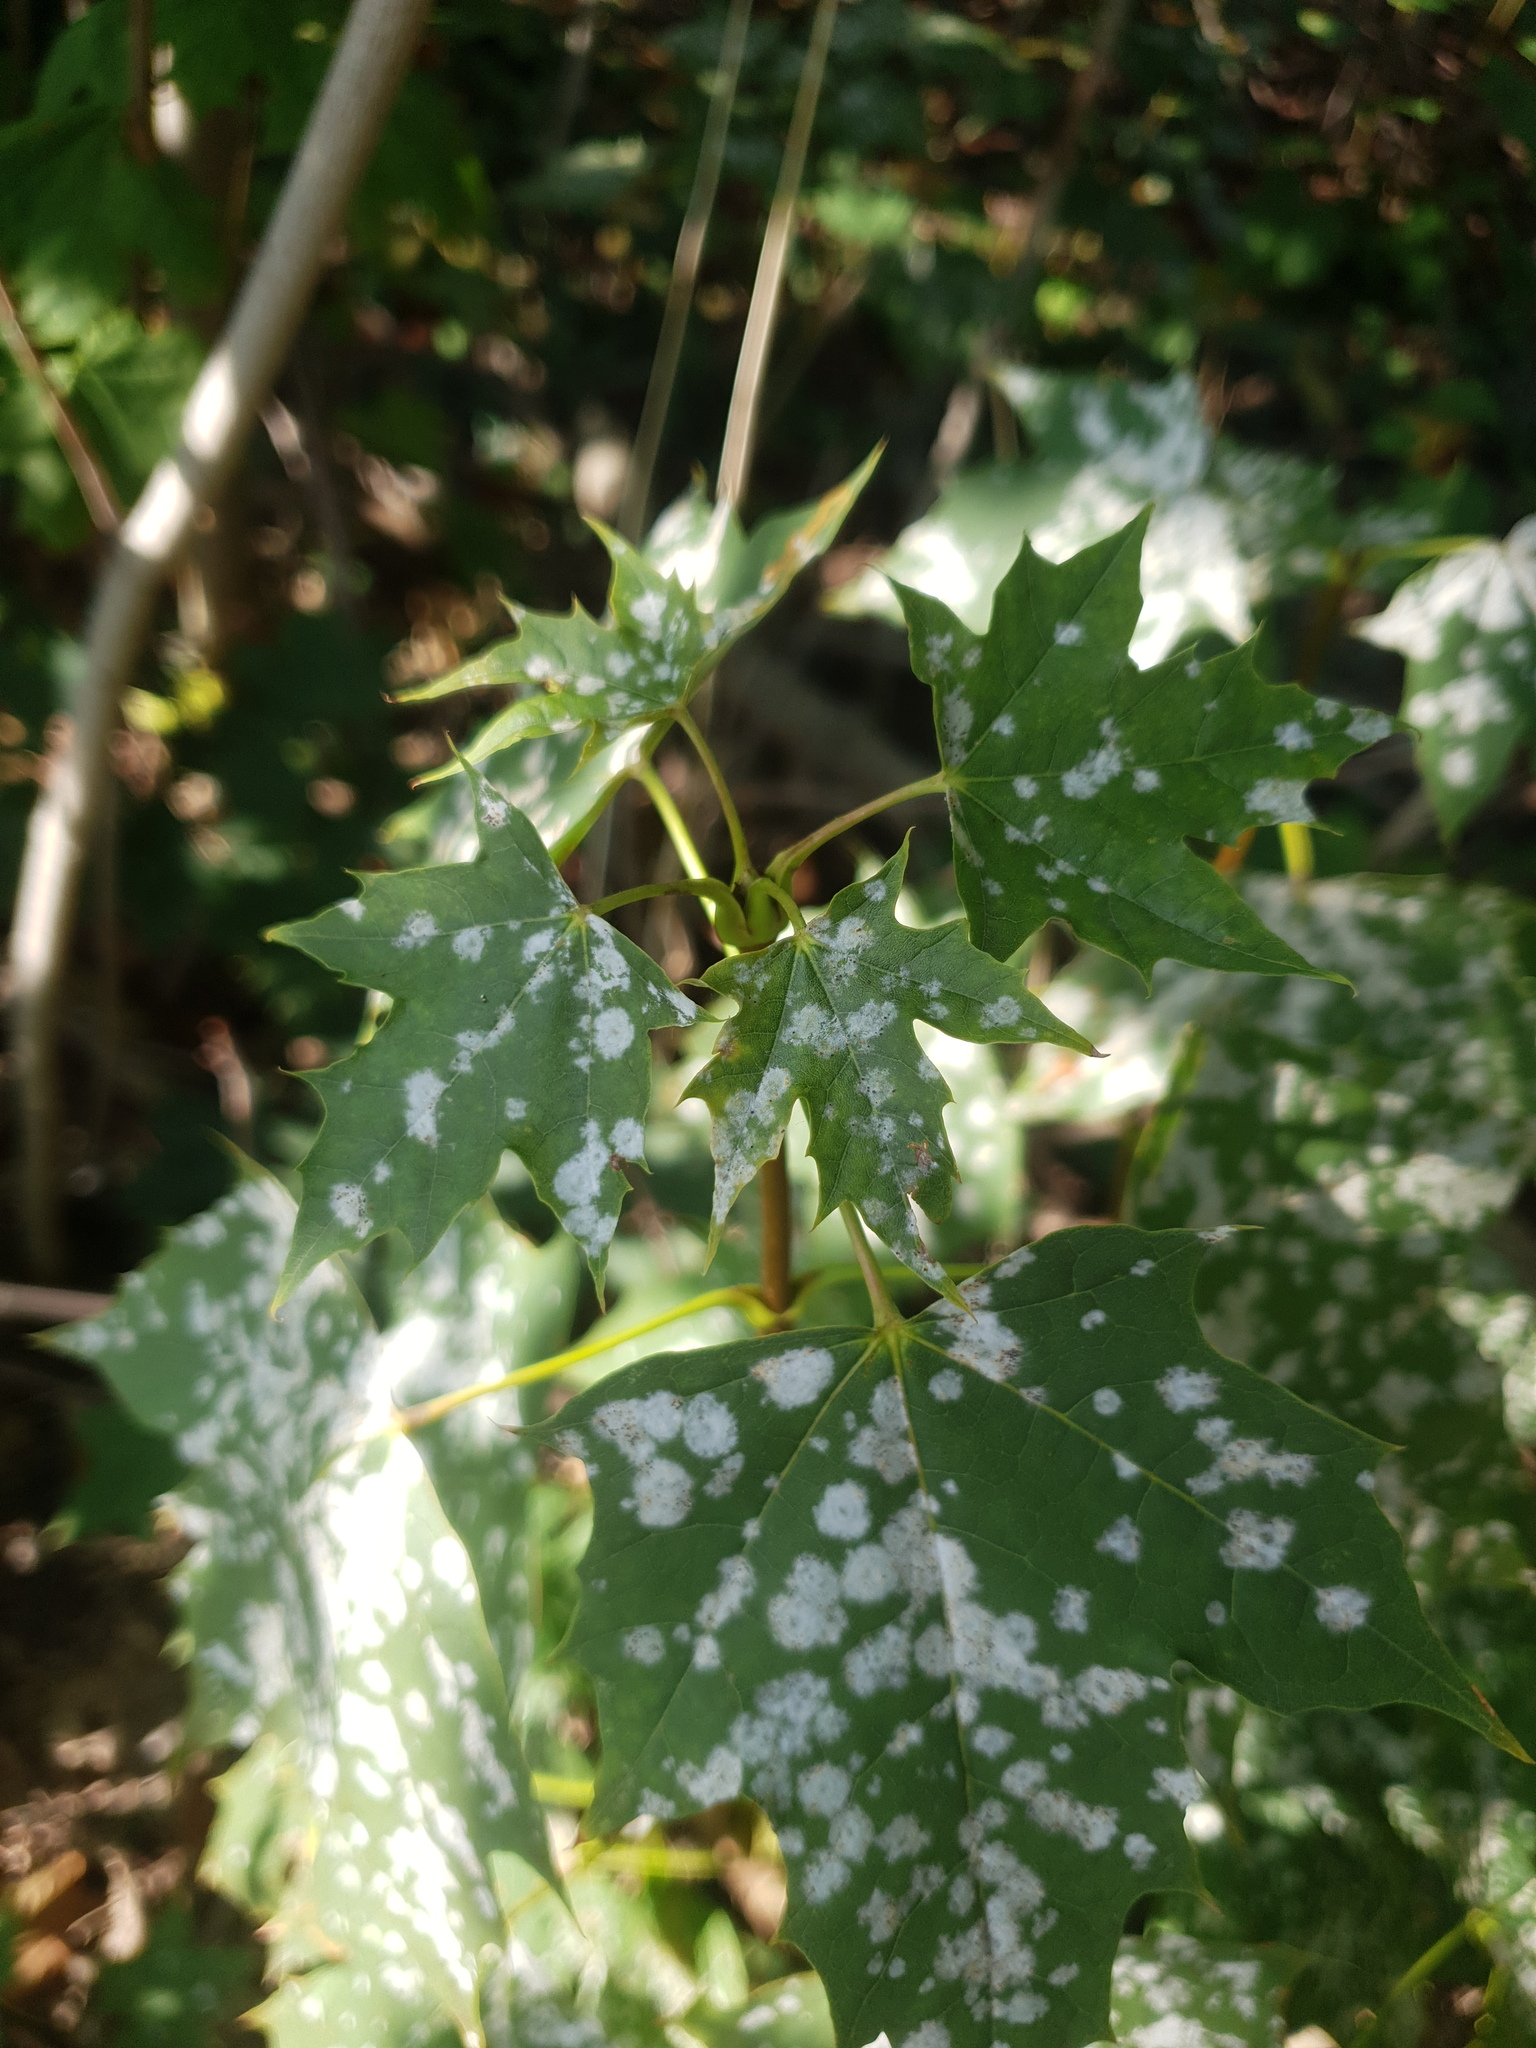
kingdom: Fungi
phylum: Ascomycota
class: Leotiomycetes
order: Helotiales
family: Erysiphaceae
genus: Sawadaea
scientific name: Sawadaea tulasnei
